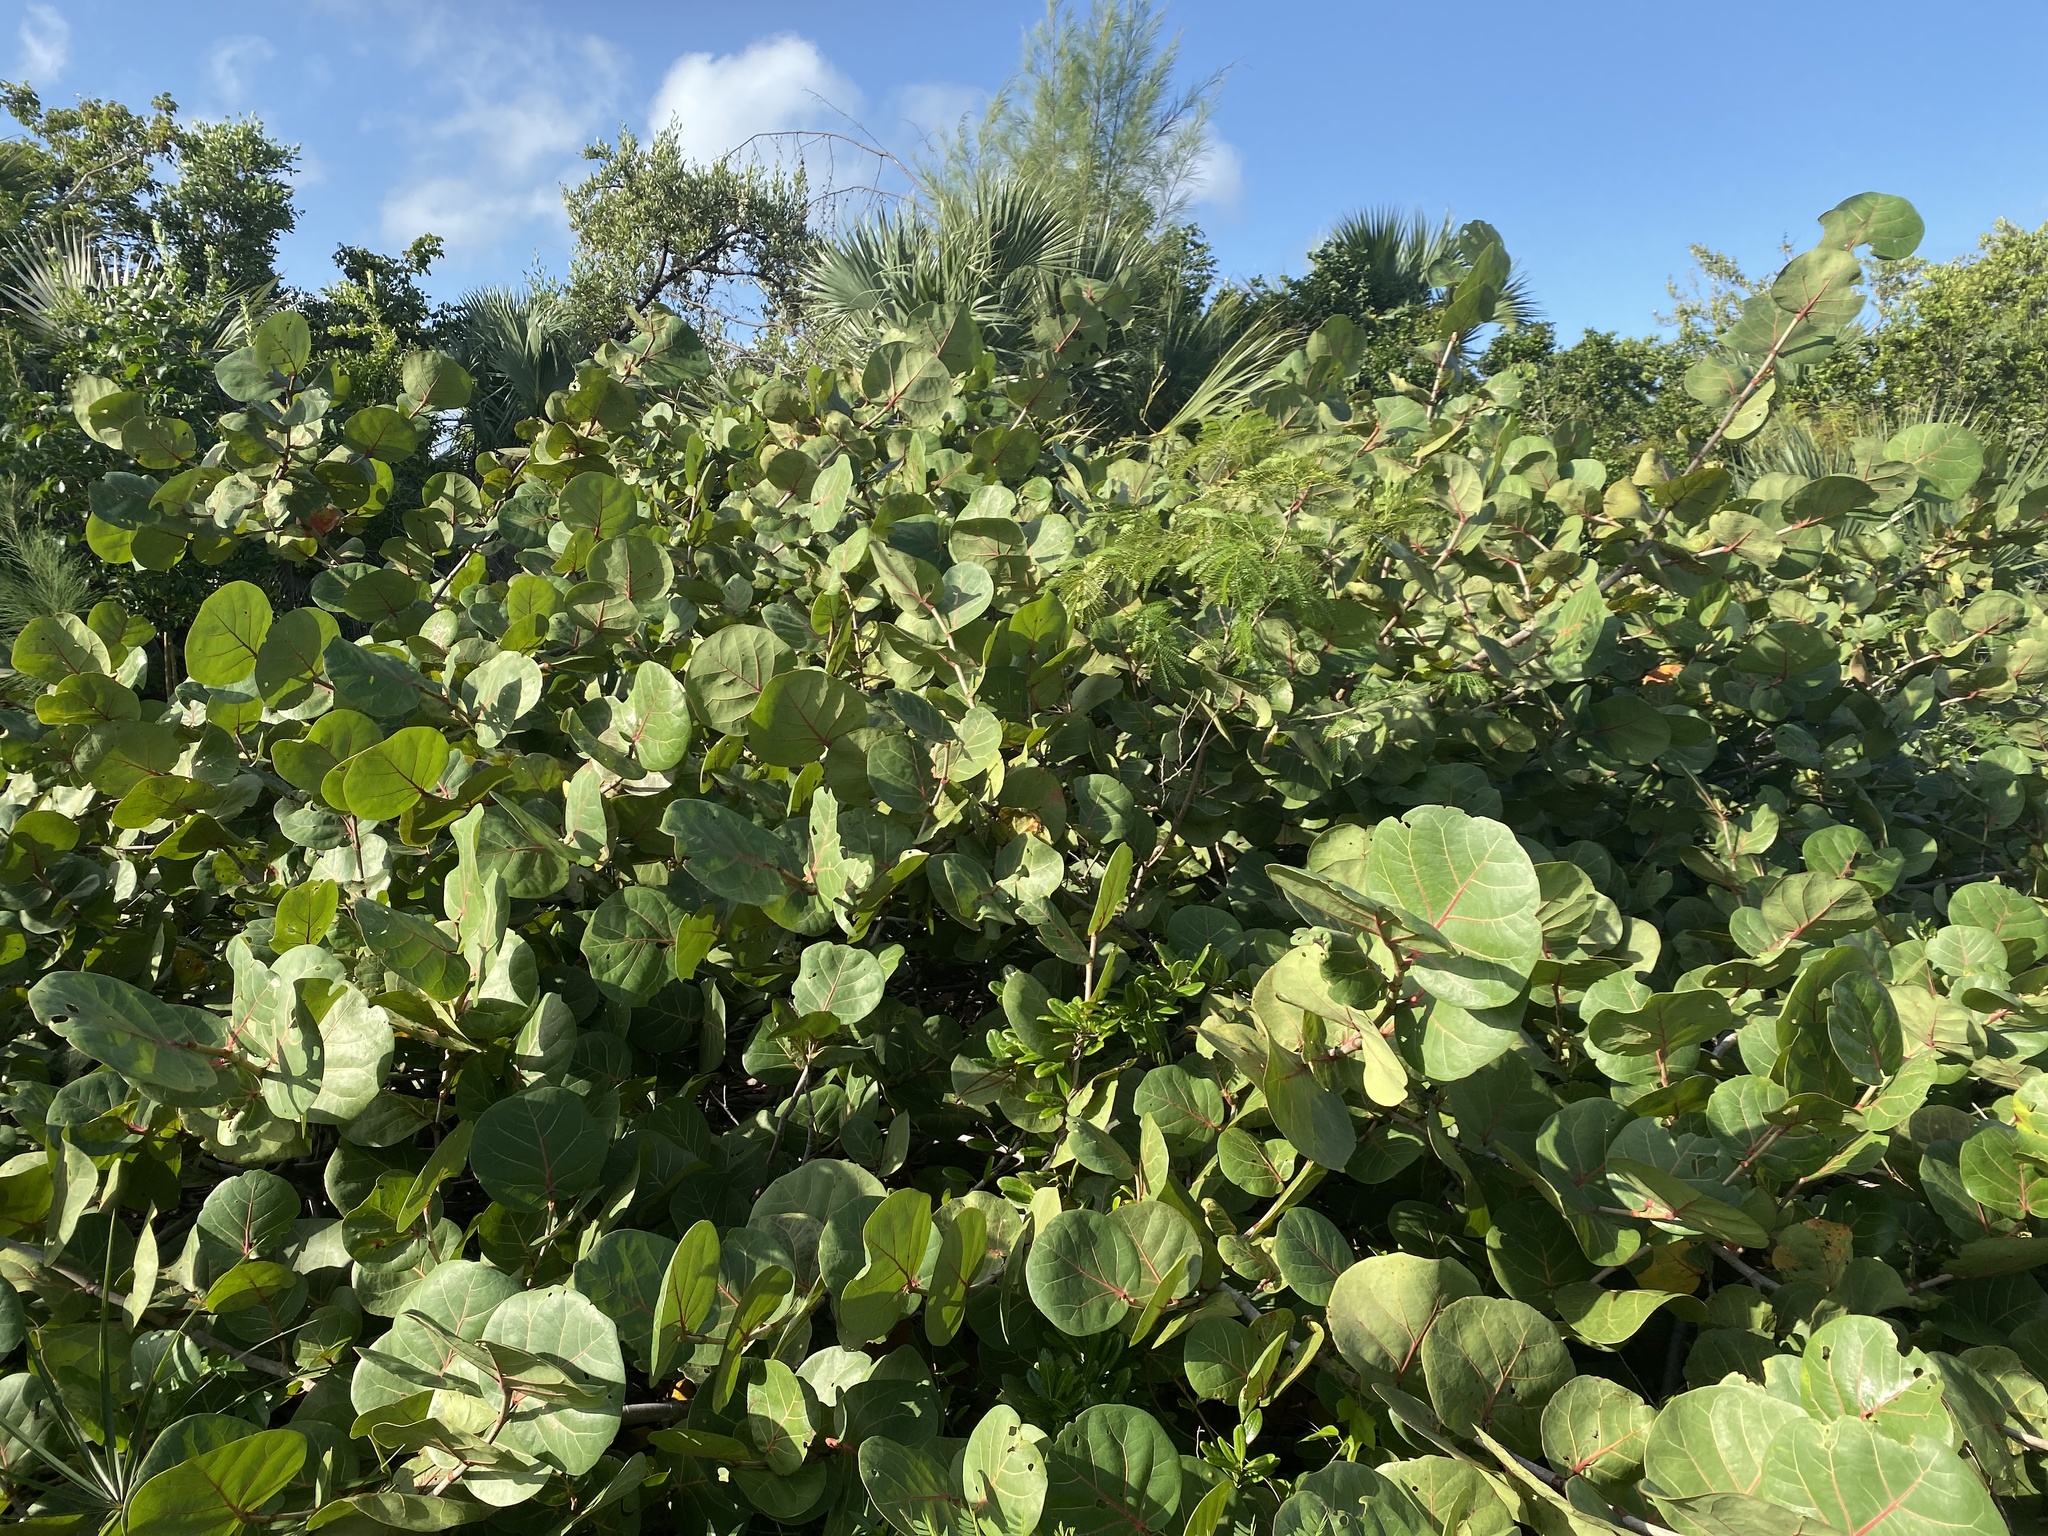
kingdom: Plantae
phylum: Tracheophyta
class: Magnoliopsida
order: Caryophyllales
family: Polygonaceae
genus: Coccoloba
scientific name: Coccoloba uvifera
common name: Seagrape
